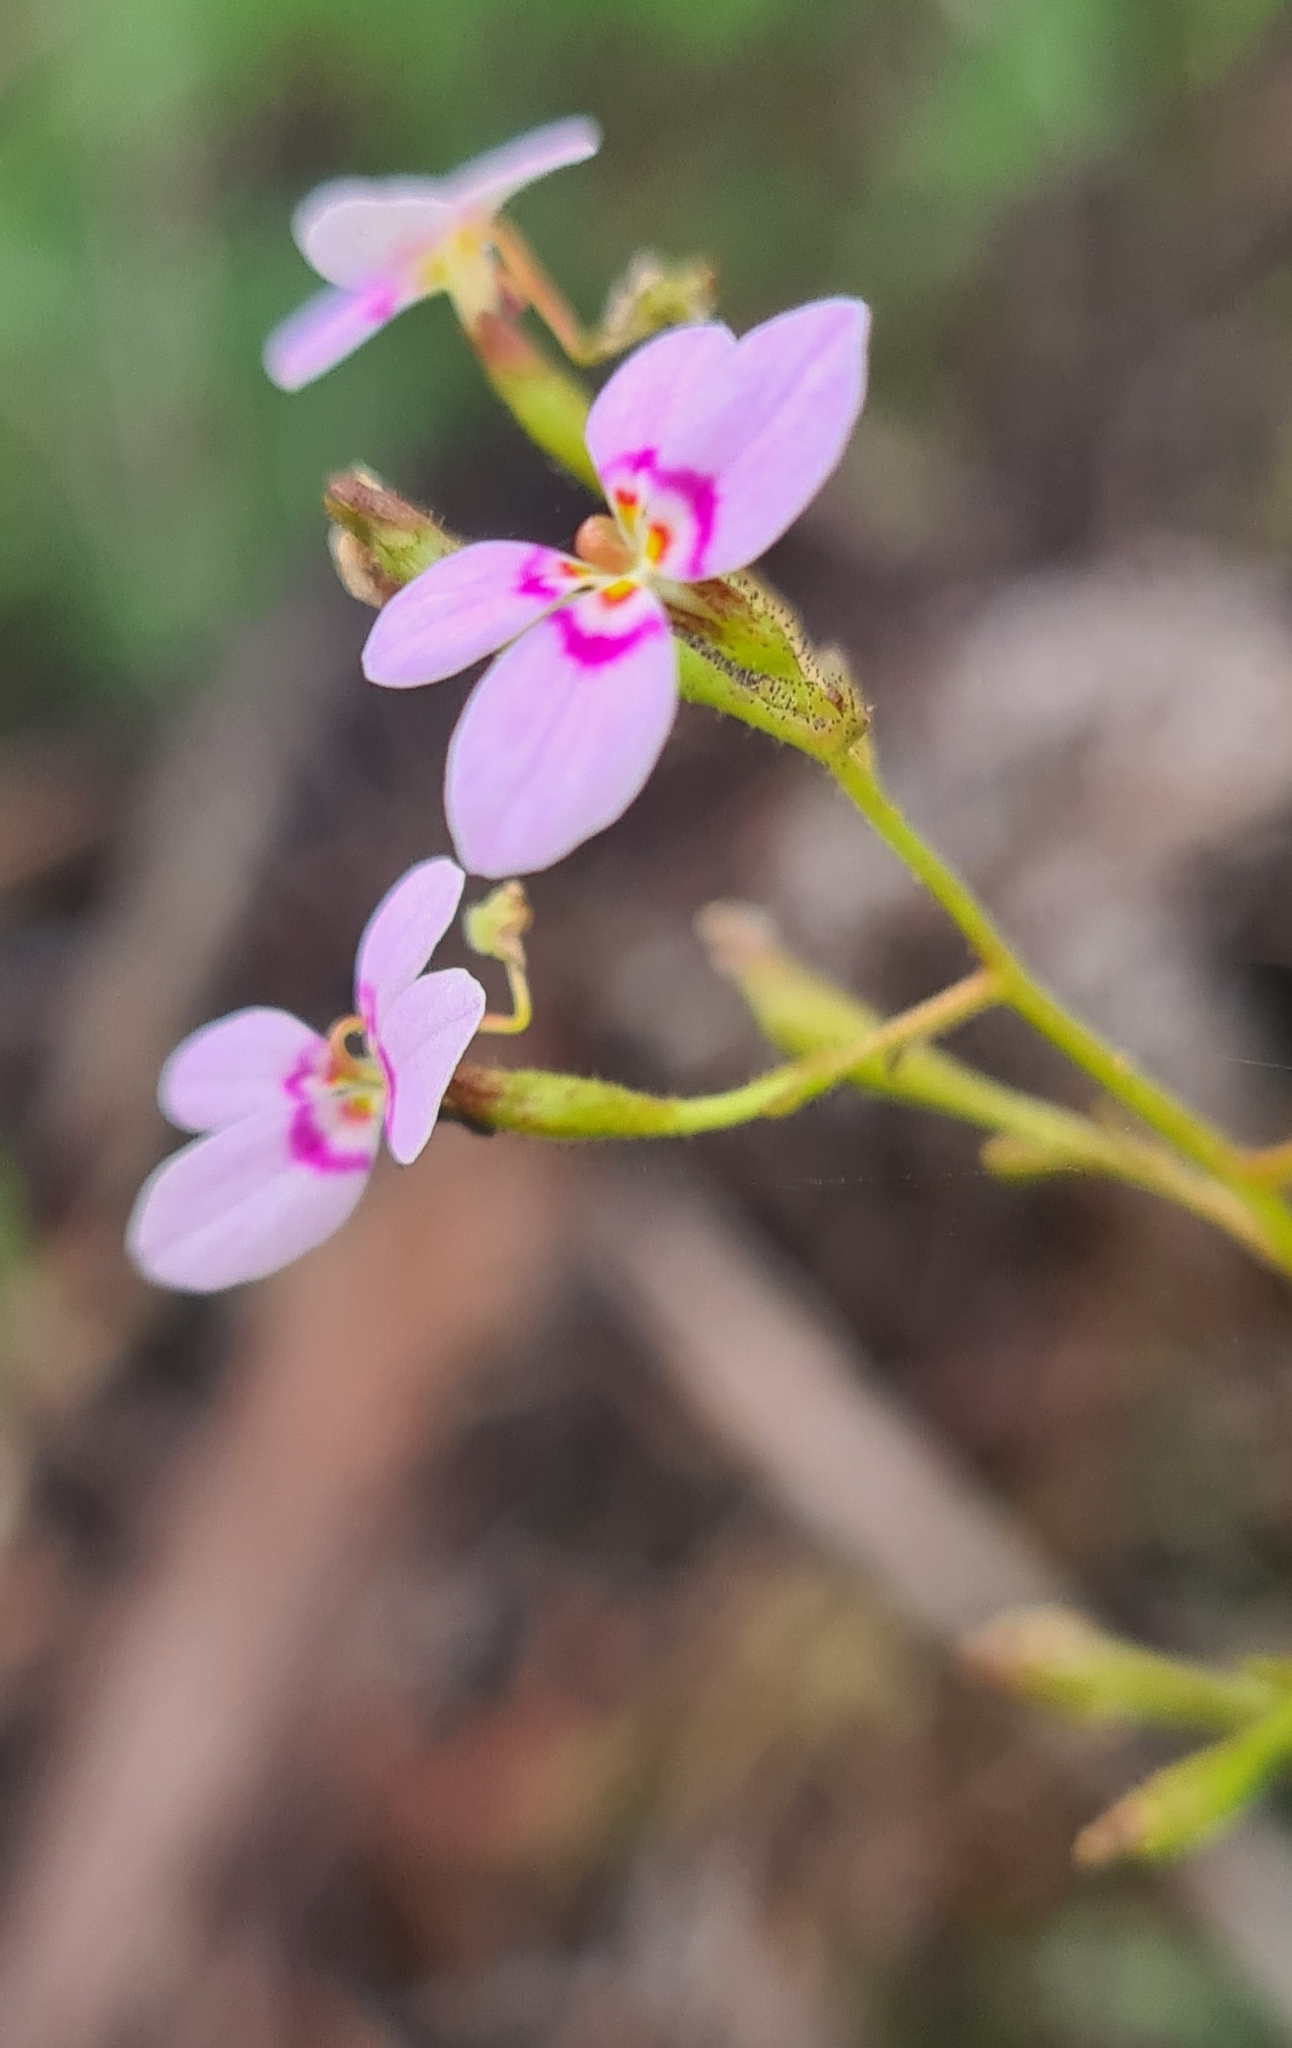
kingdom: Plantae
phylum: Tracheophyta
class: Magnoliopsida
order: Asterales
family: Stylidiaceae
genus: Stylidium
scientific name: Stylidium laricifolium
